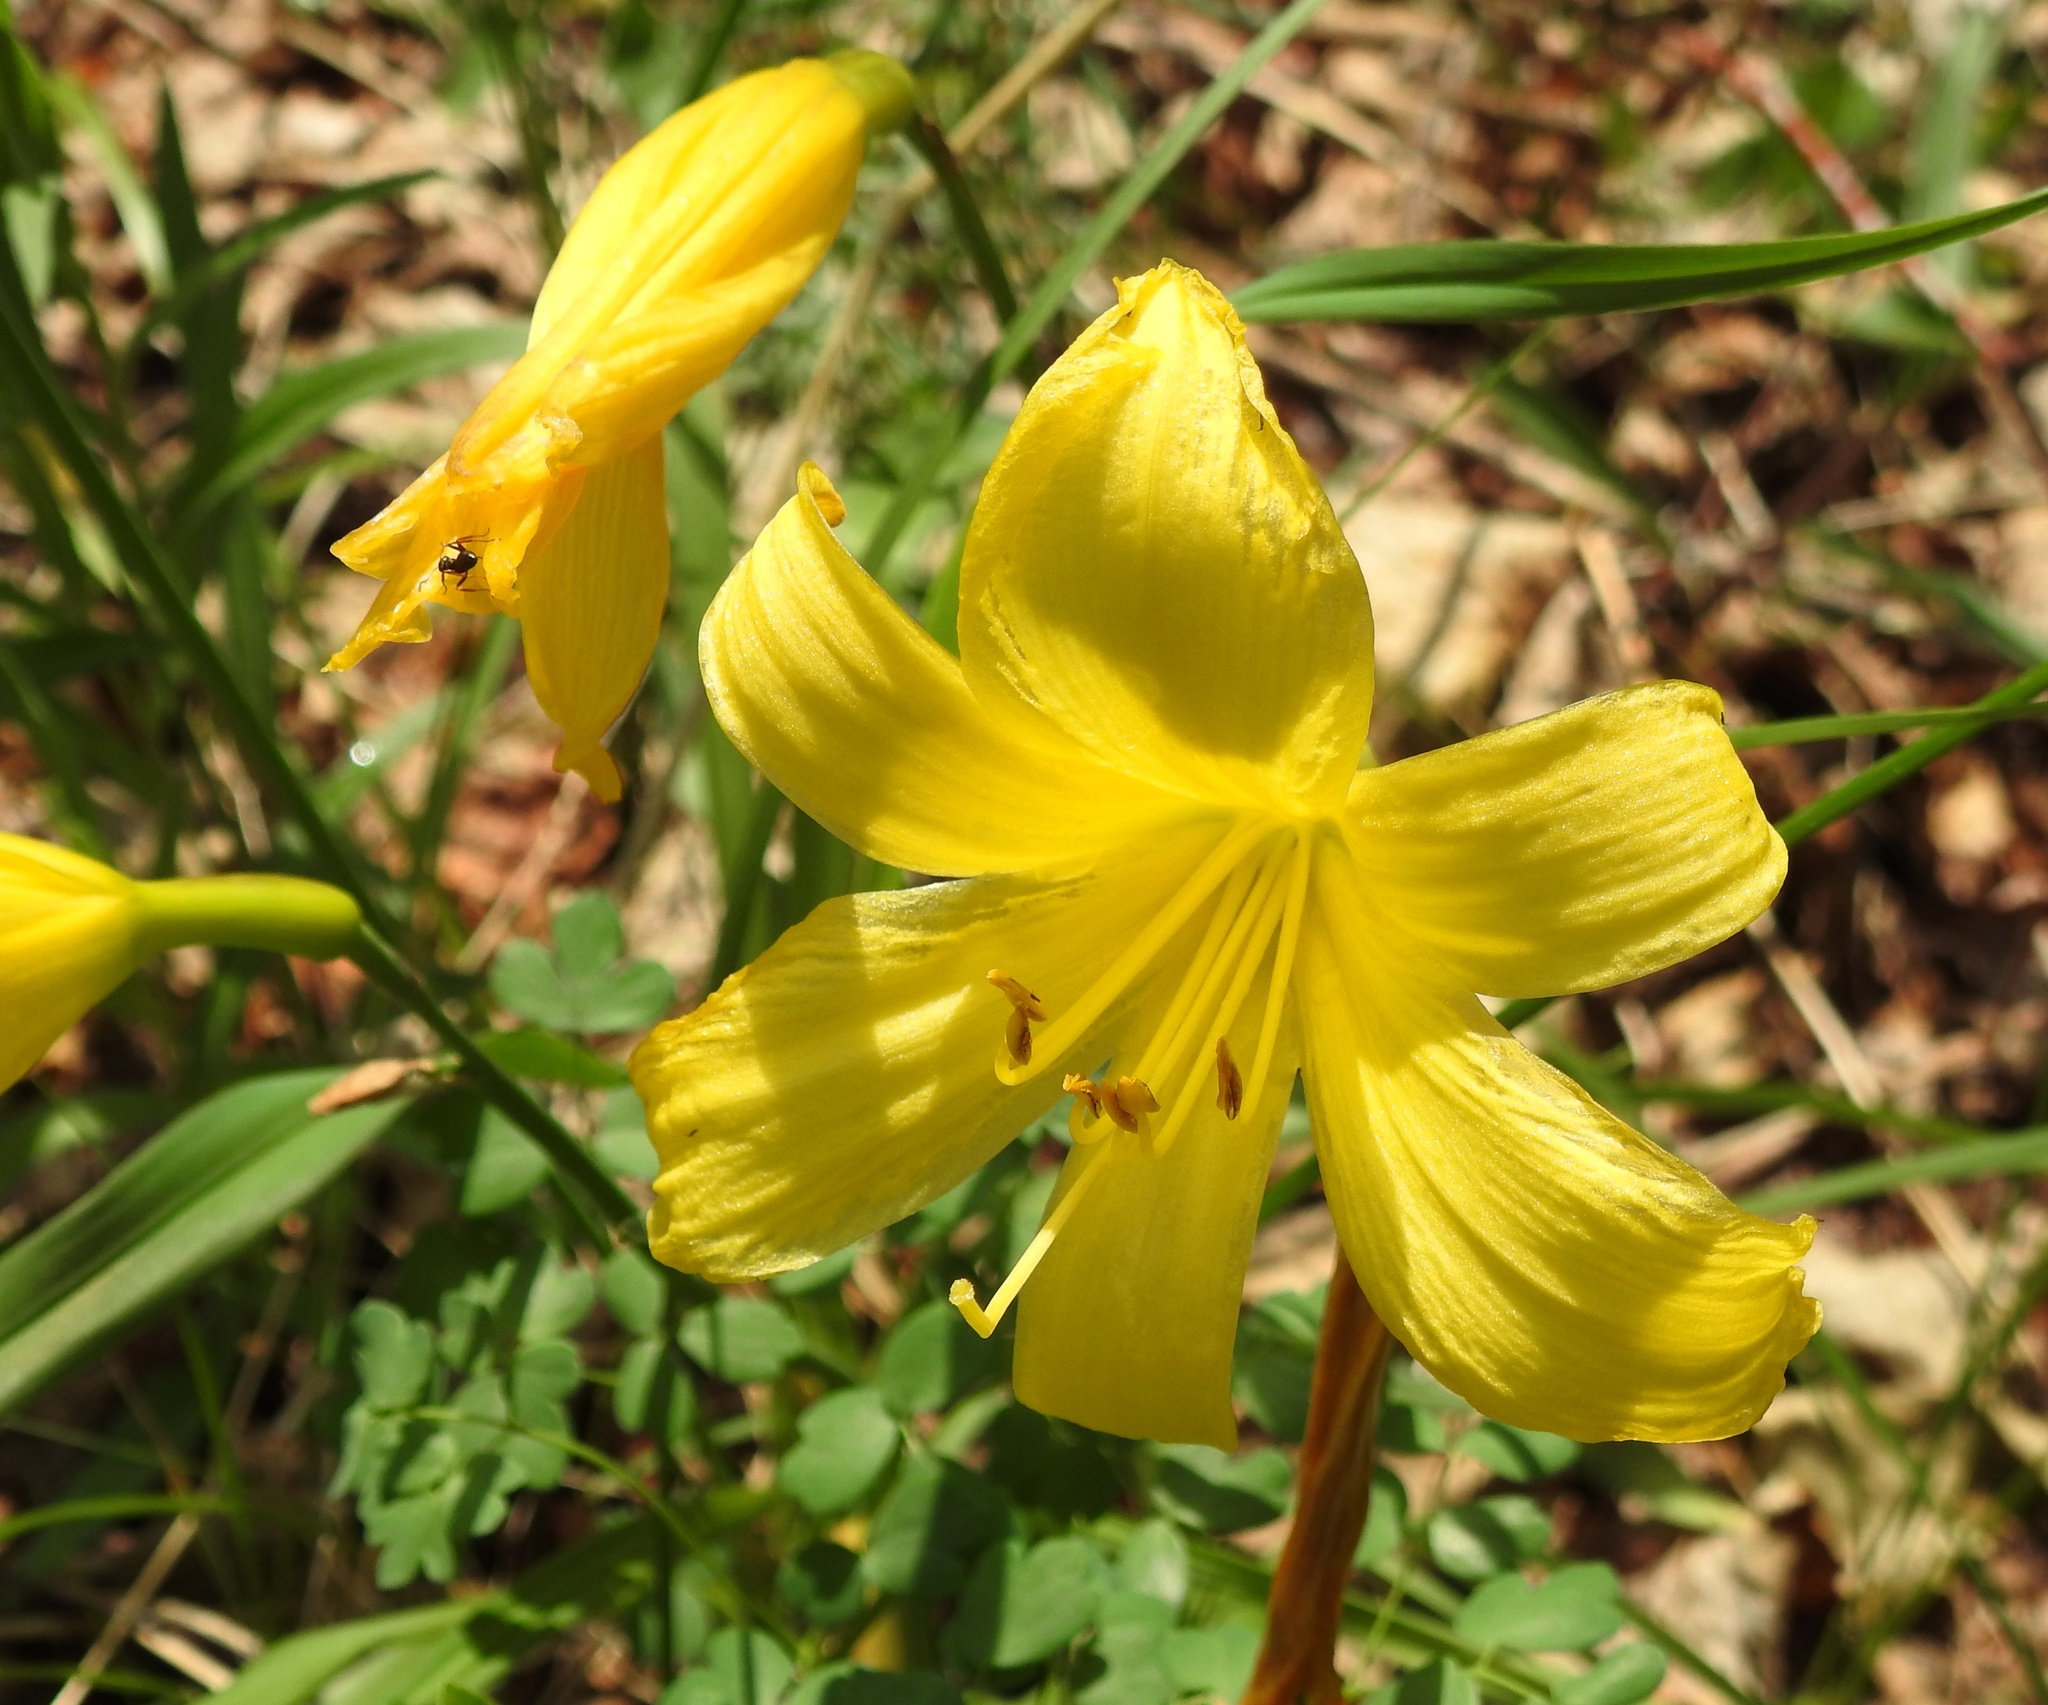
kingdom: Plantae
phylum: Tracheophyta
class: Liliopsida
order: Asparagales
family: Asphodelaceae
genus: Hemerocallis
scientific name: Hemerocallis minor
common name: Small daylily
